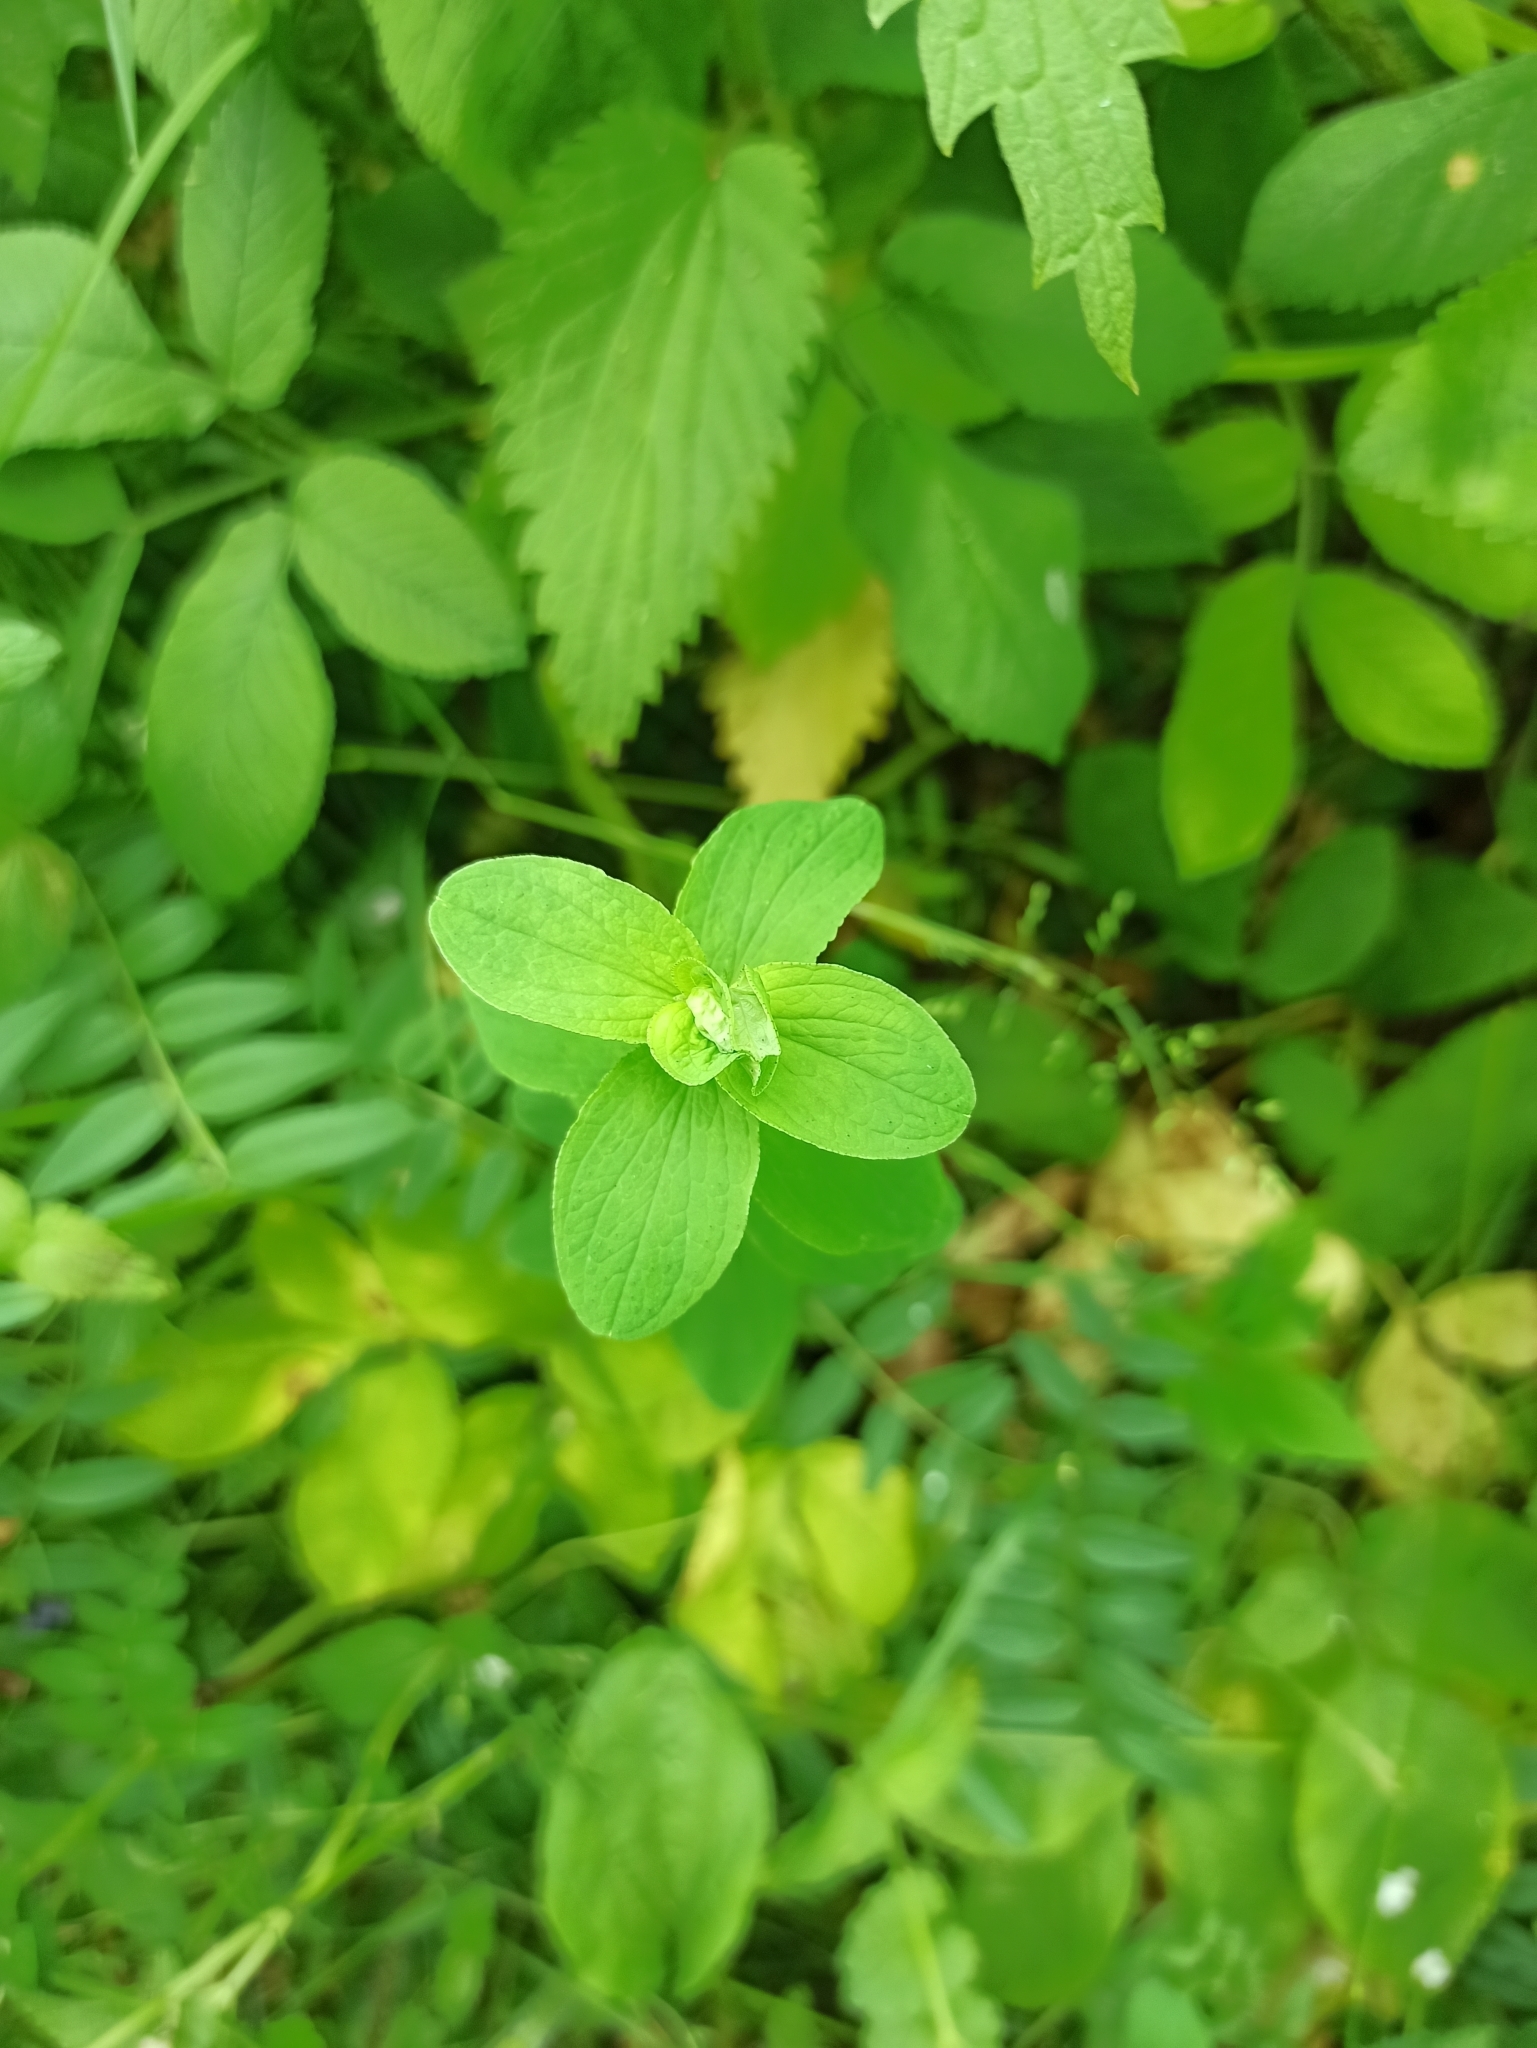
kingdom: Plantae
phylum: Tracheophyta
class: Magnoliopsida
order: Malpighiales
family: Hypericaceae
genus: Hypericum
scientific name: Hypericum maculatum
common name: Imperforate st. john's-wort
